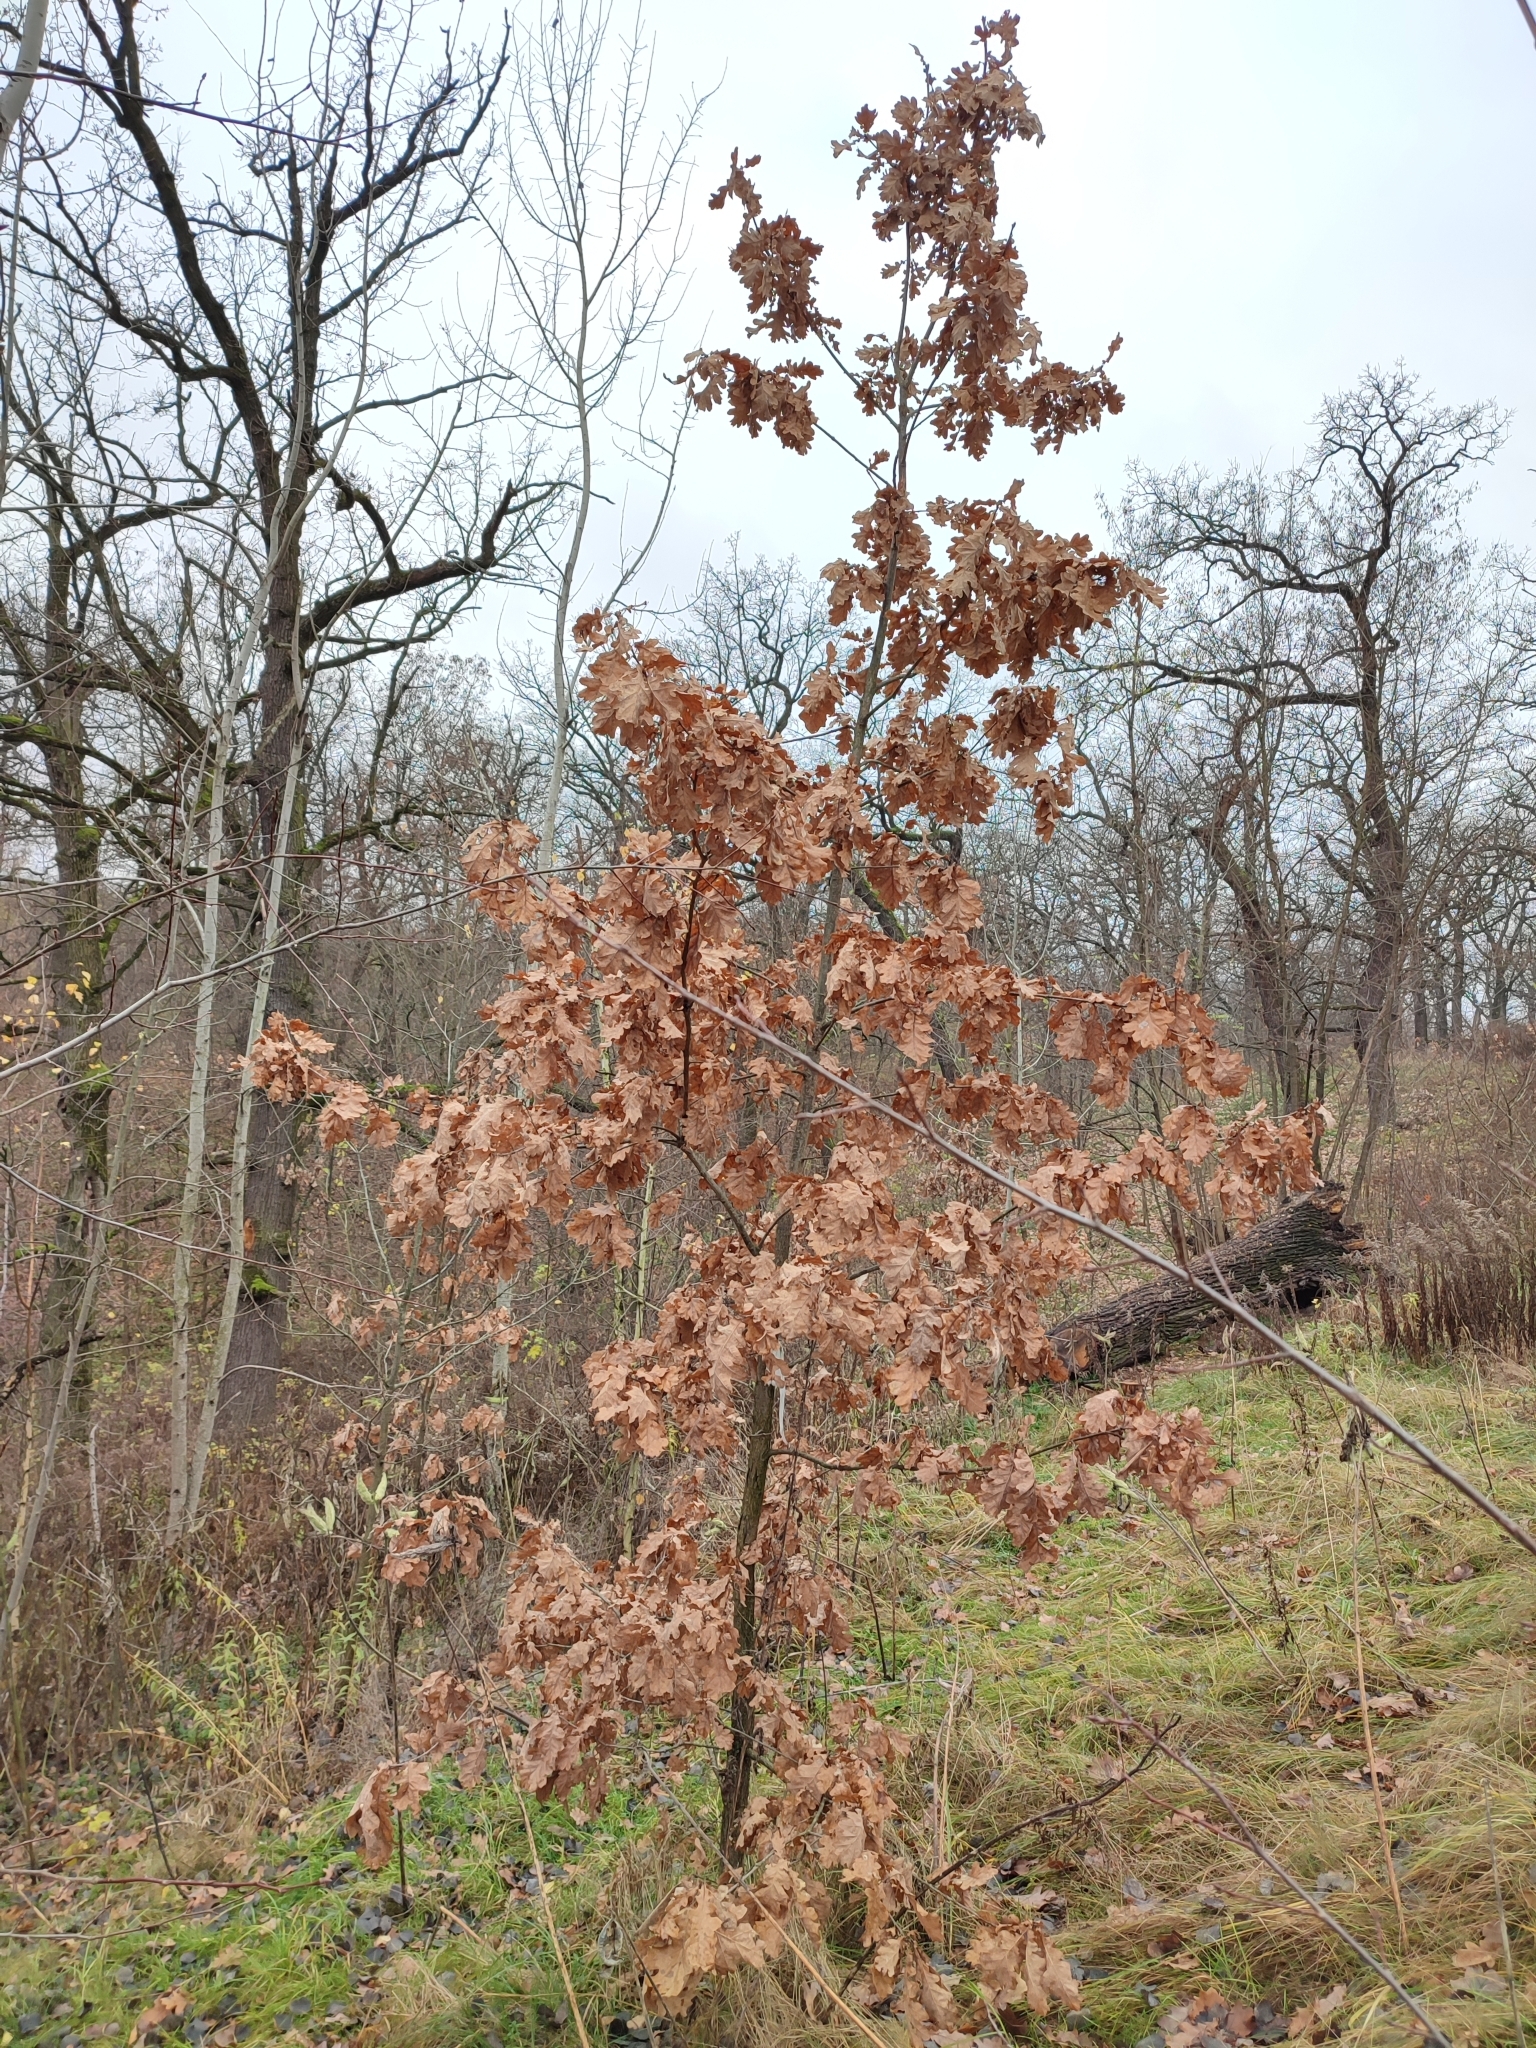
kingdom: Plantae
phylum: Tracheophyta
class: Magnoliopsida
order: Fagales
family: Fagaceae
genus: Quercus
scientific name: Quercus robur
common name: Pedunculate oak
